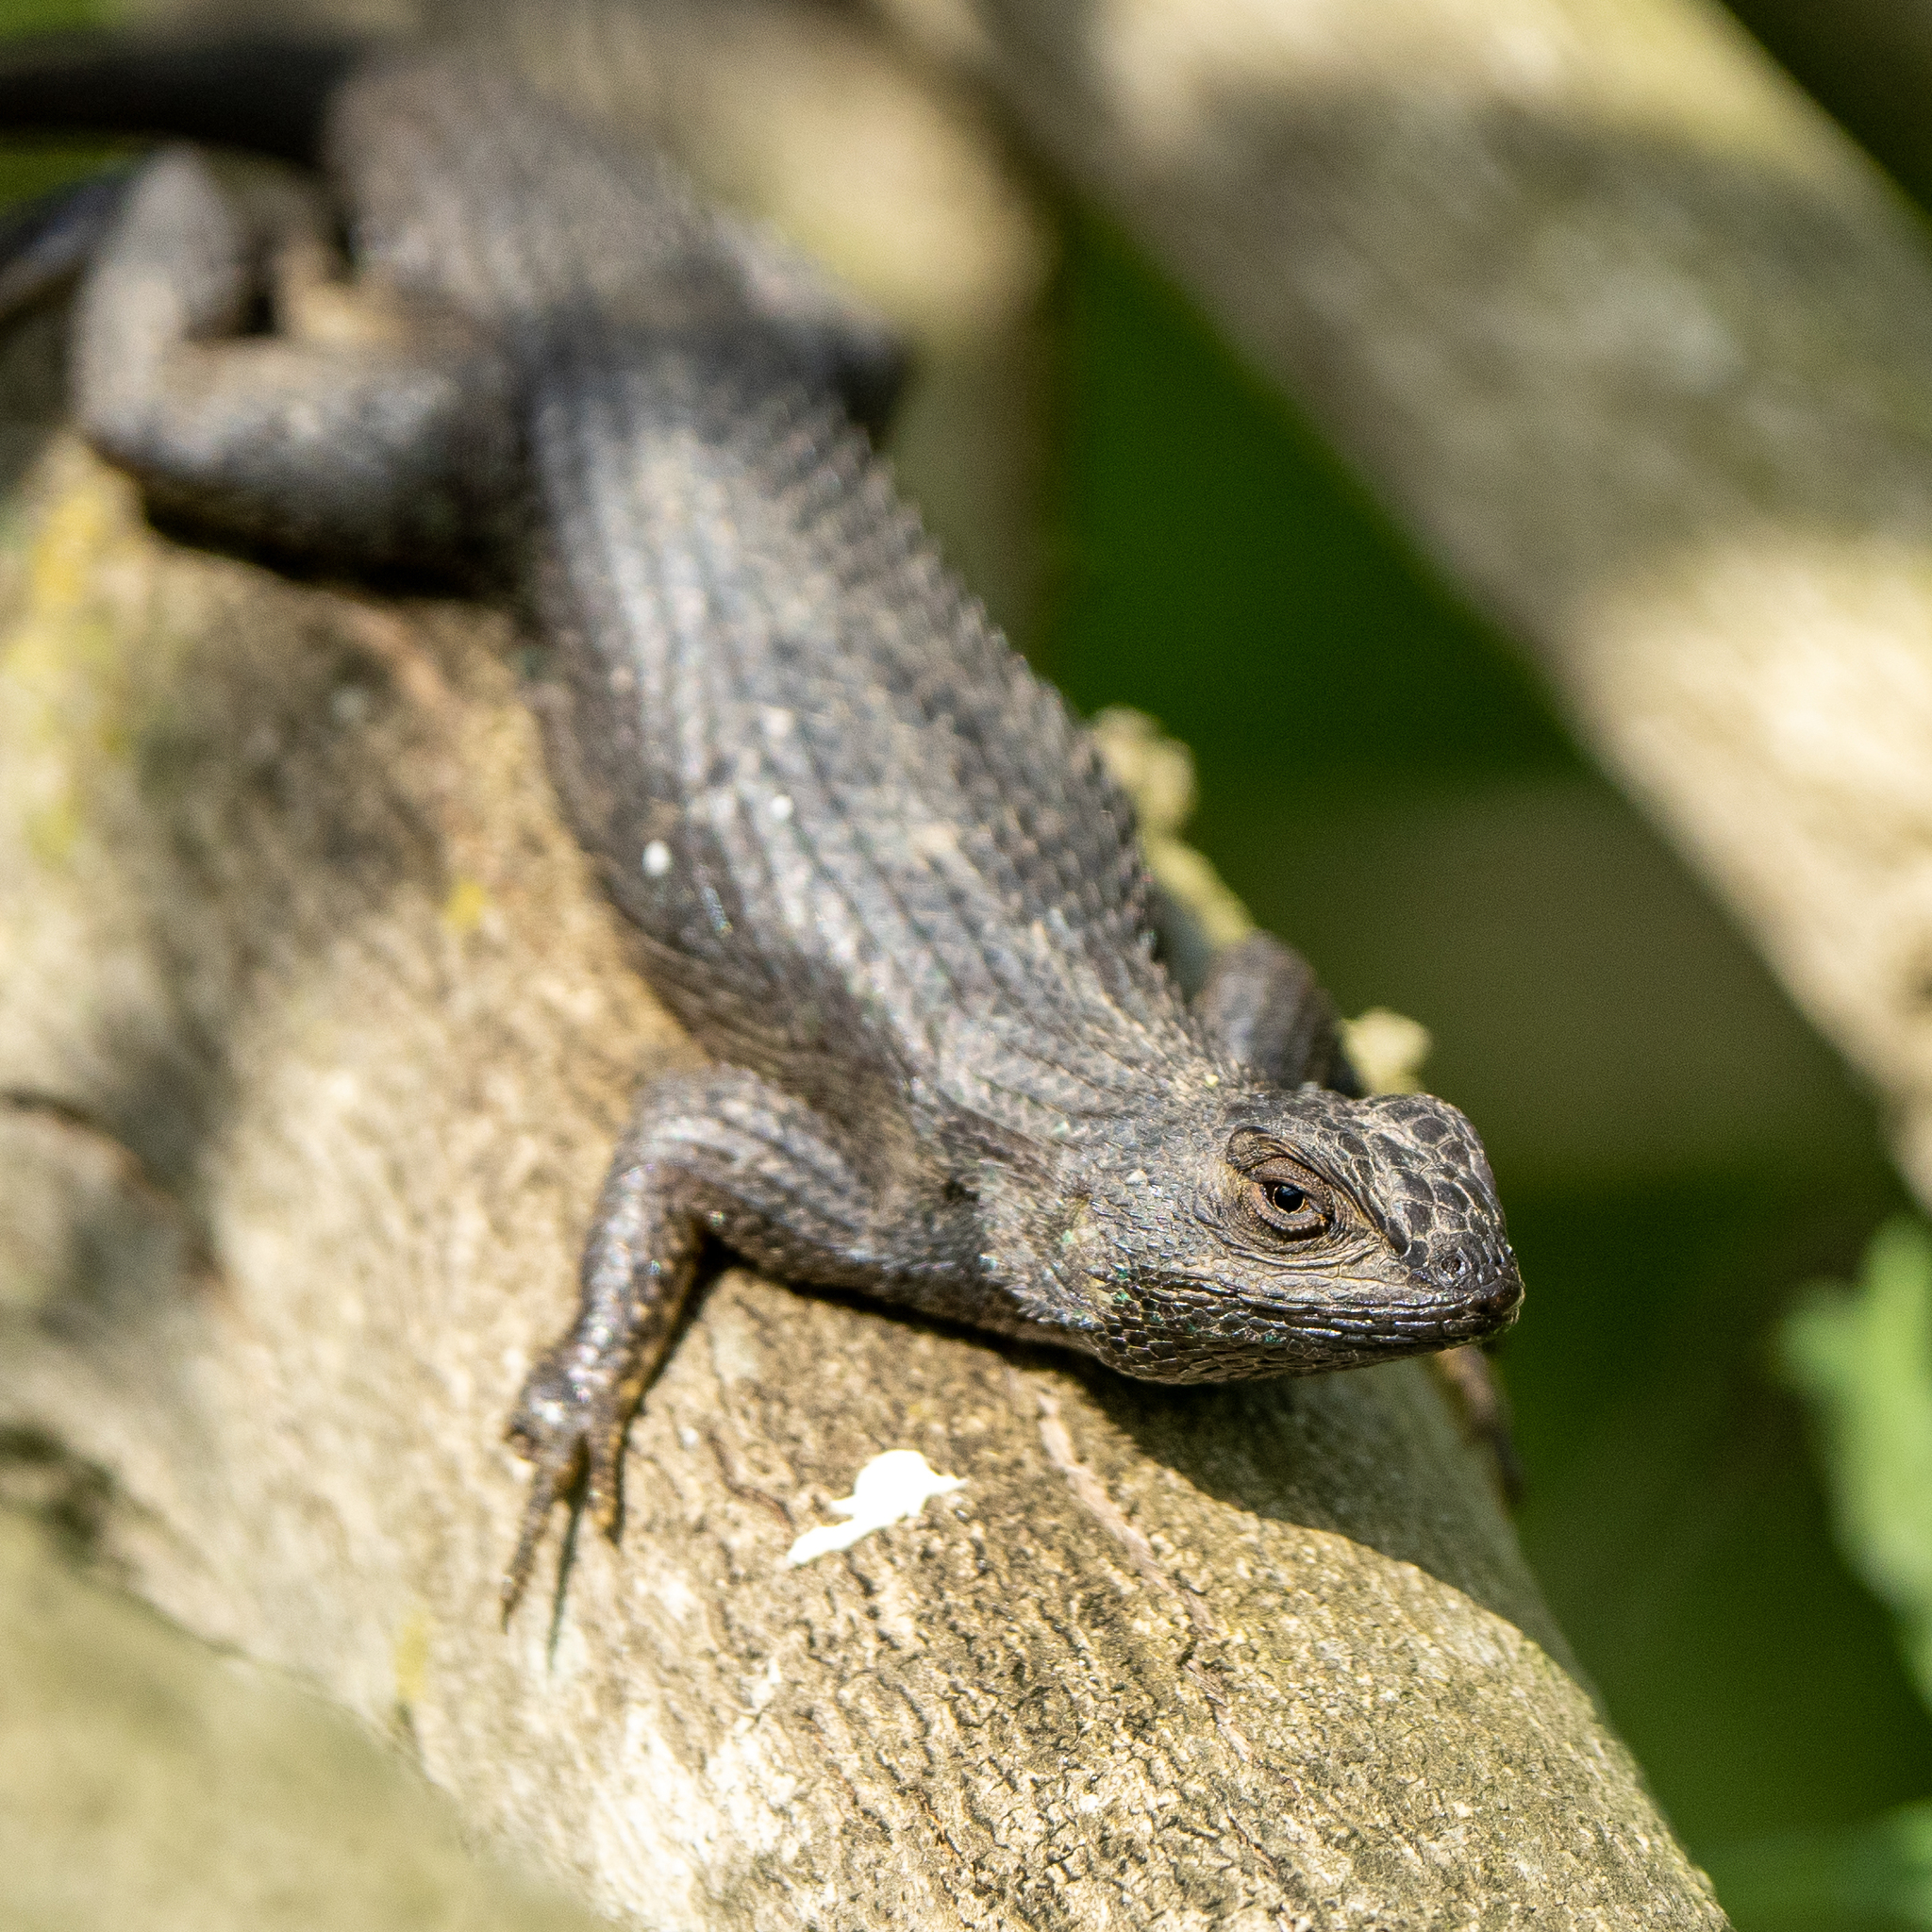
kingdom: Animalia
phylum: Chordata
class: Squamata
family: Phrynosomatidae
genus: Sceloporus
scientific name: Sceloporus occidentalis
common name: Western fence lizard
